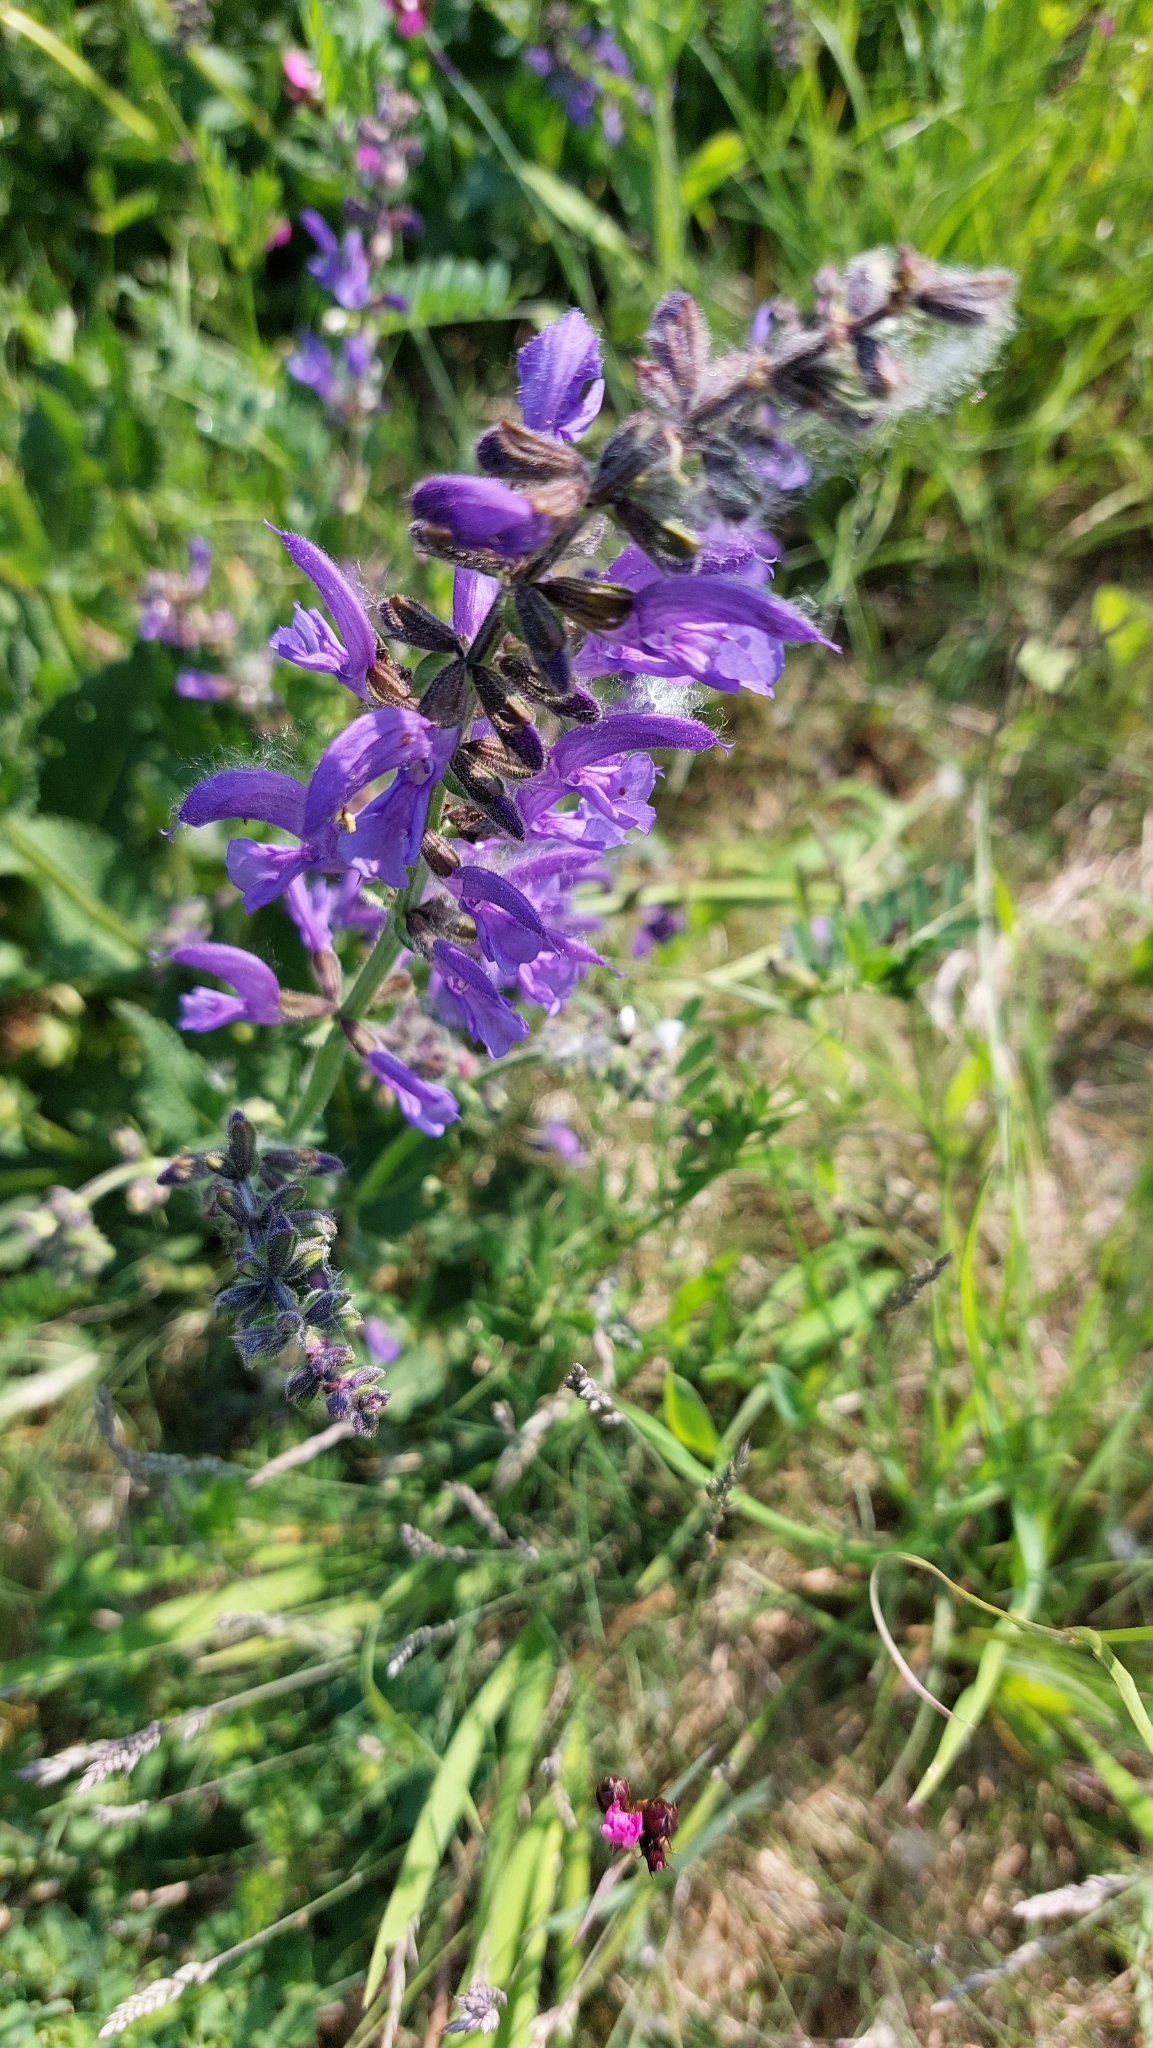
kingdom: Plantae
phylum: Tracheophyta
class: Magnoliopsida
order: Lamiales
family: Lamiaceae
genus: Salvia
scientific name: Salvia pratensis
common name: Meadow sage
